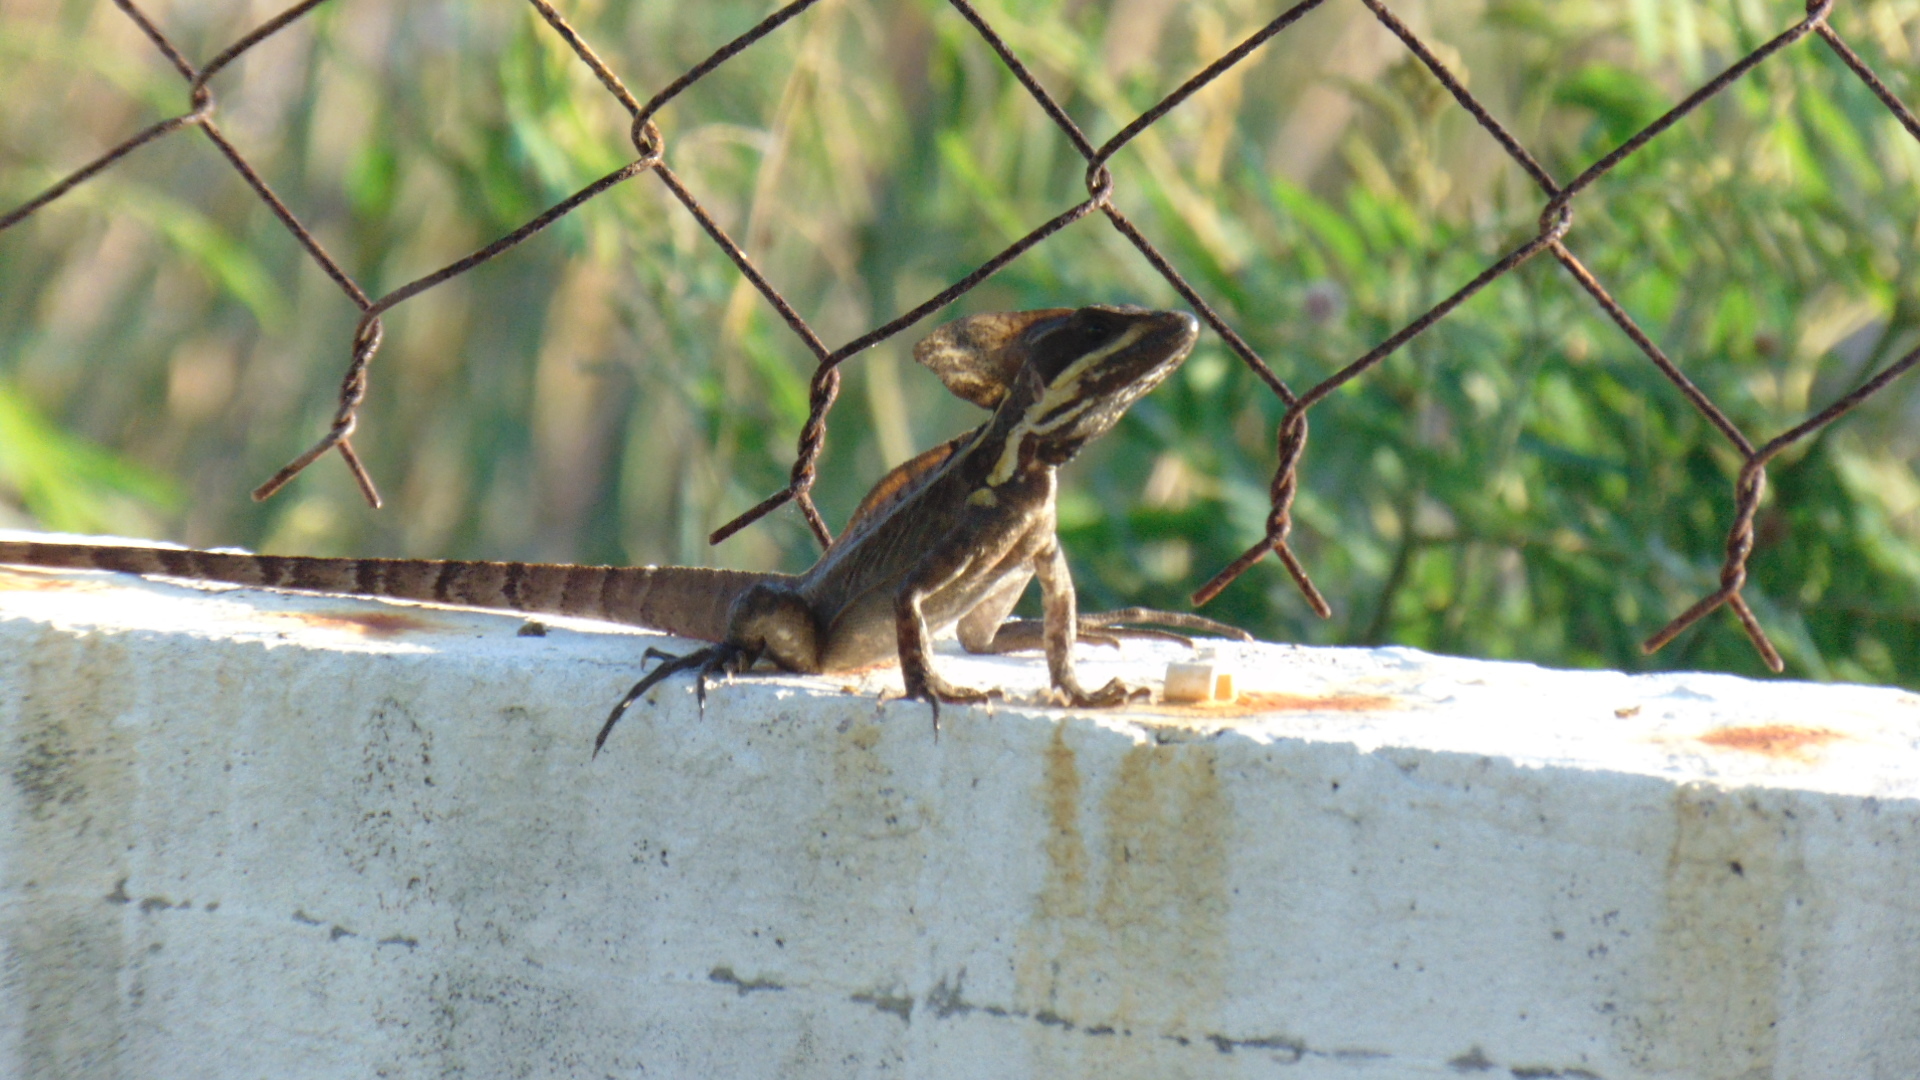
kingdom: Animalia
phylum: Chordata
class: Squamata
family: Corytophanidae
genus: Basiliscus
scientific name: Basiliscus vittatus
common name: Brown basilisk
